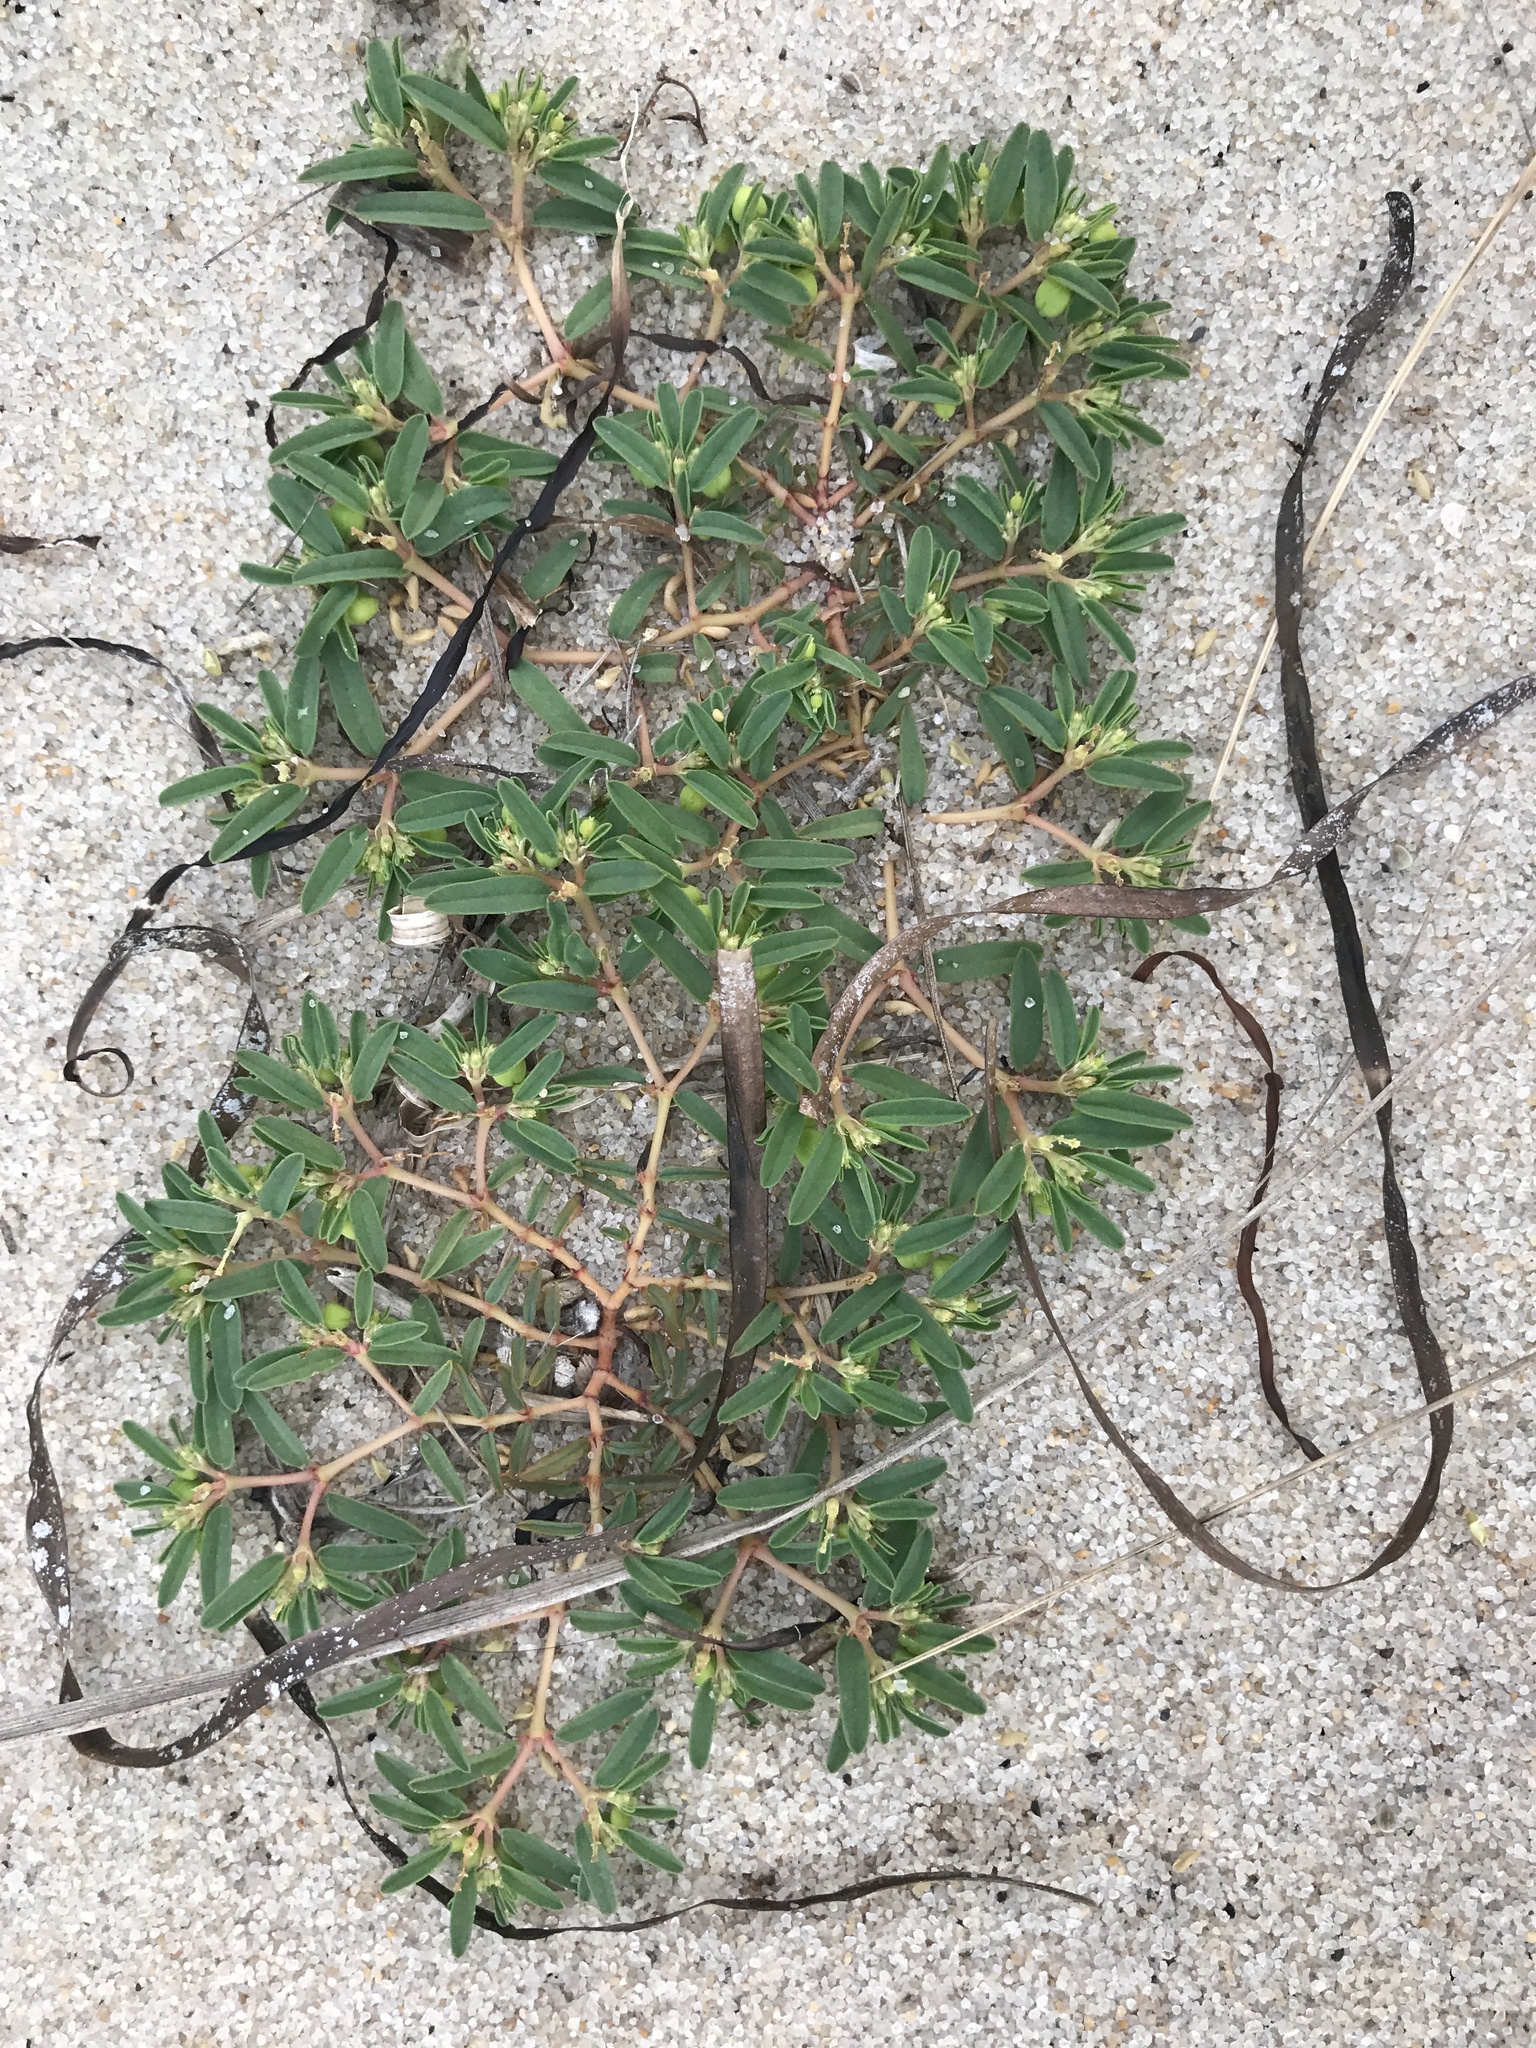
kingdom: Plantae
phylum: Tracheophyta
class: Magnoliopsida
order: Malpighiales
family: Euphorbiaceae
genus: Euphorbia
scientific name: Euphorbia polygonifolia
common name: Knotweed spurge
